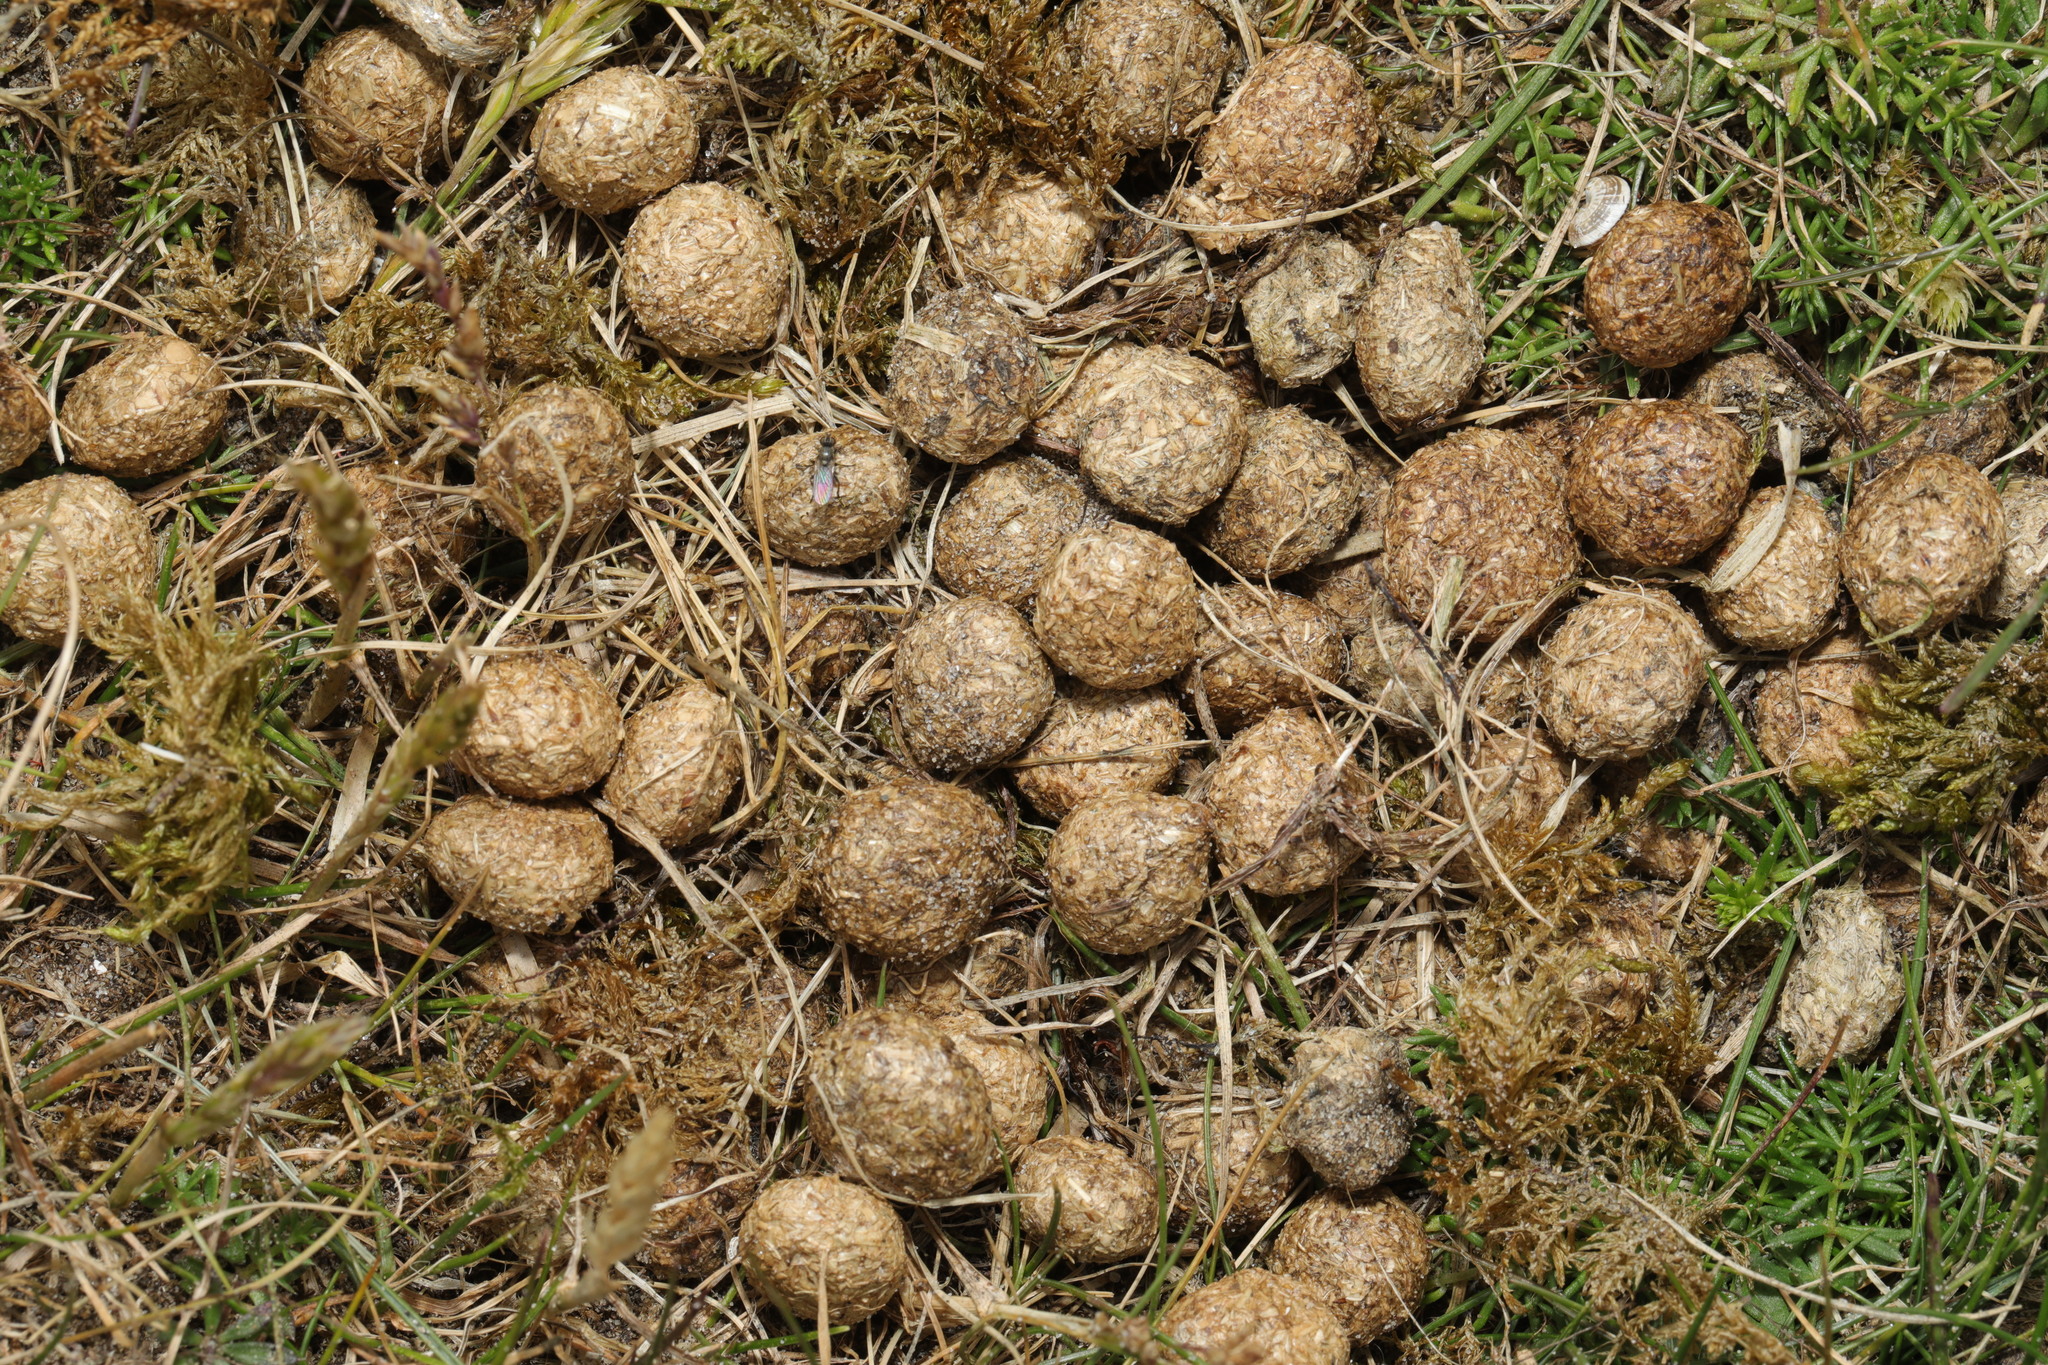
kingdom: Animalia
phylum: Chordata
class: Mammalia
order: Lagomorpha
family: Leporidae
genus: Oryctolagus
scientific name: Oryctolagus cuniculus
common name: European rabbit
